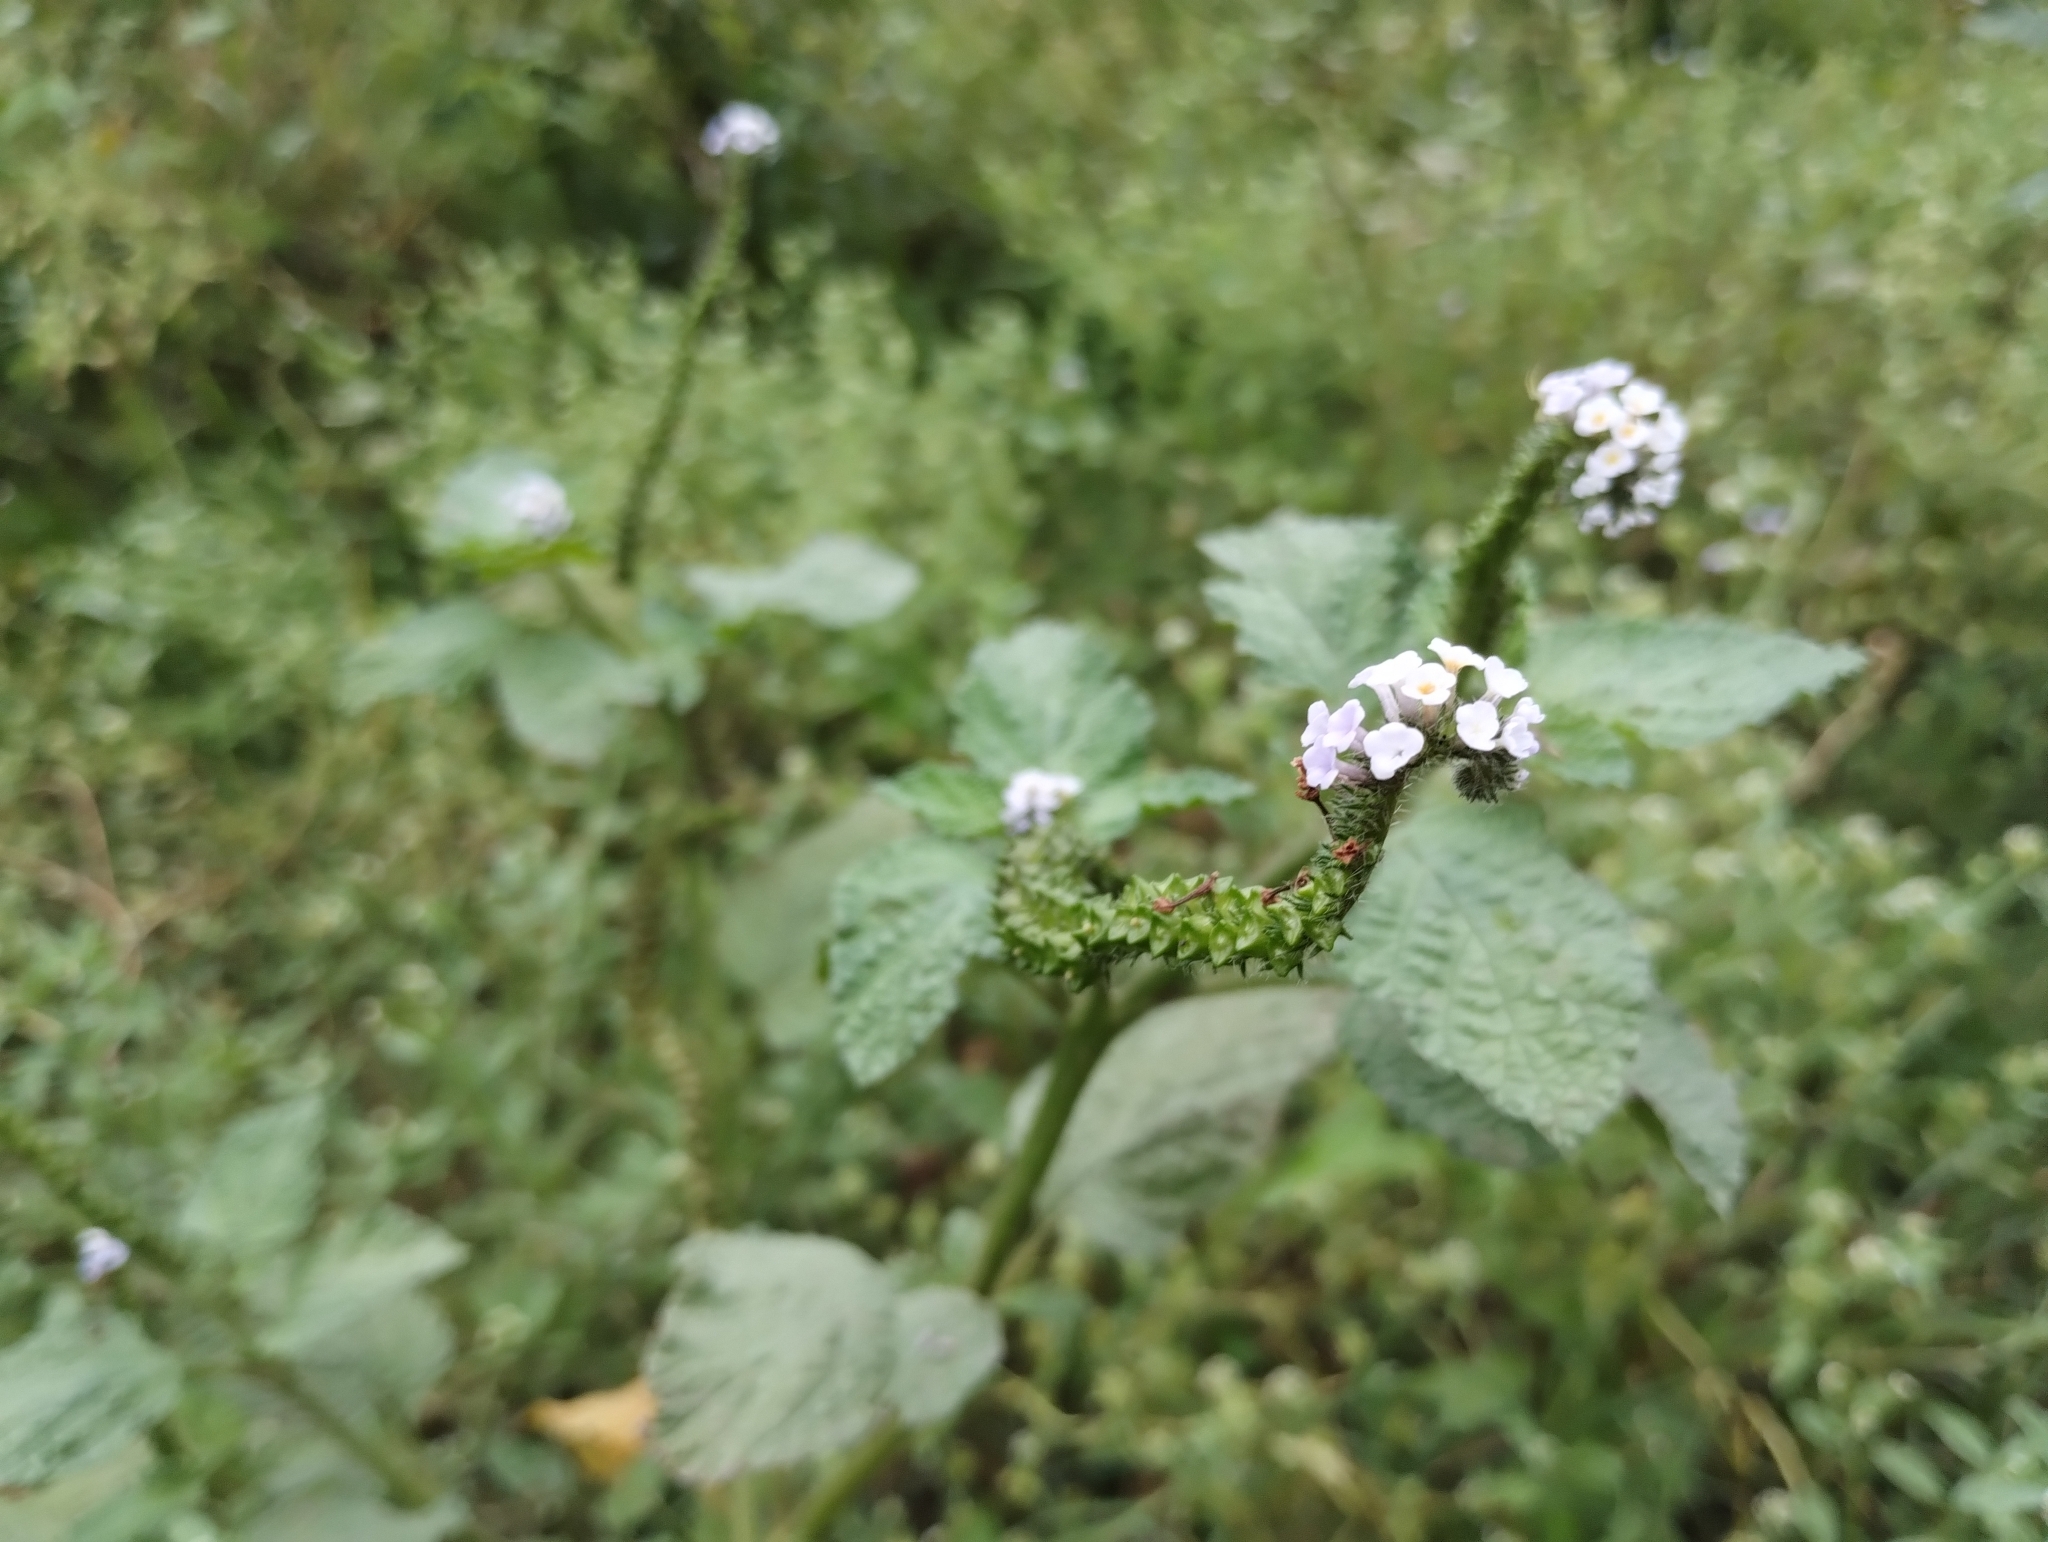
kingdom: Plantae
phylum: Tracheophyta
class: Magnoliopsida
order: Boraginales
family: Heliotropiaceae
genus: Heliotropium
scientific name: Heliotropium elongatum
